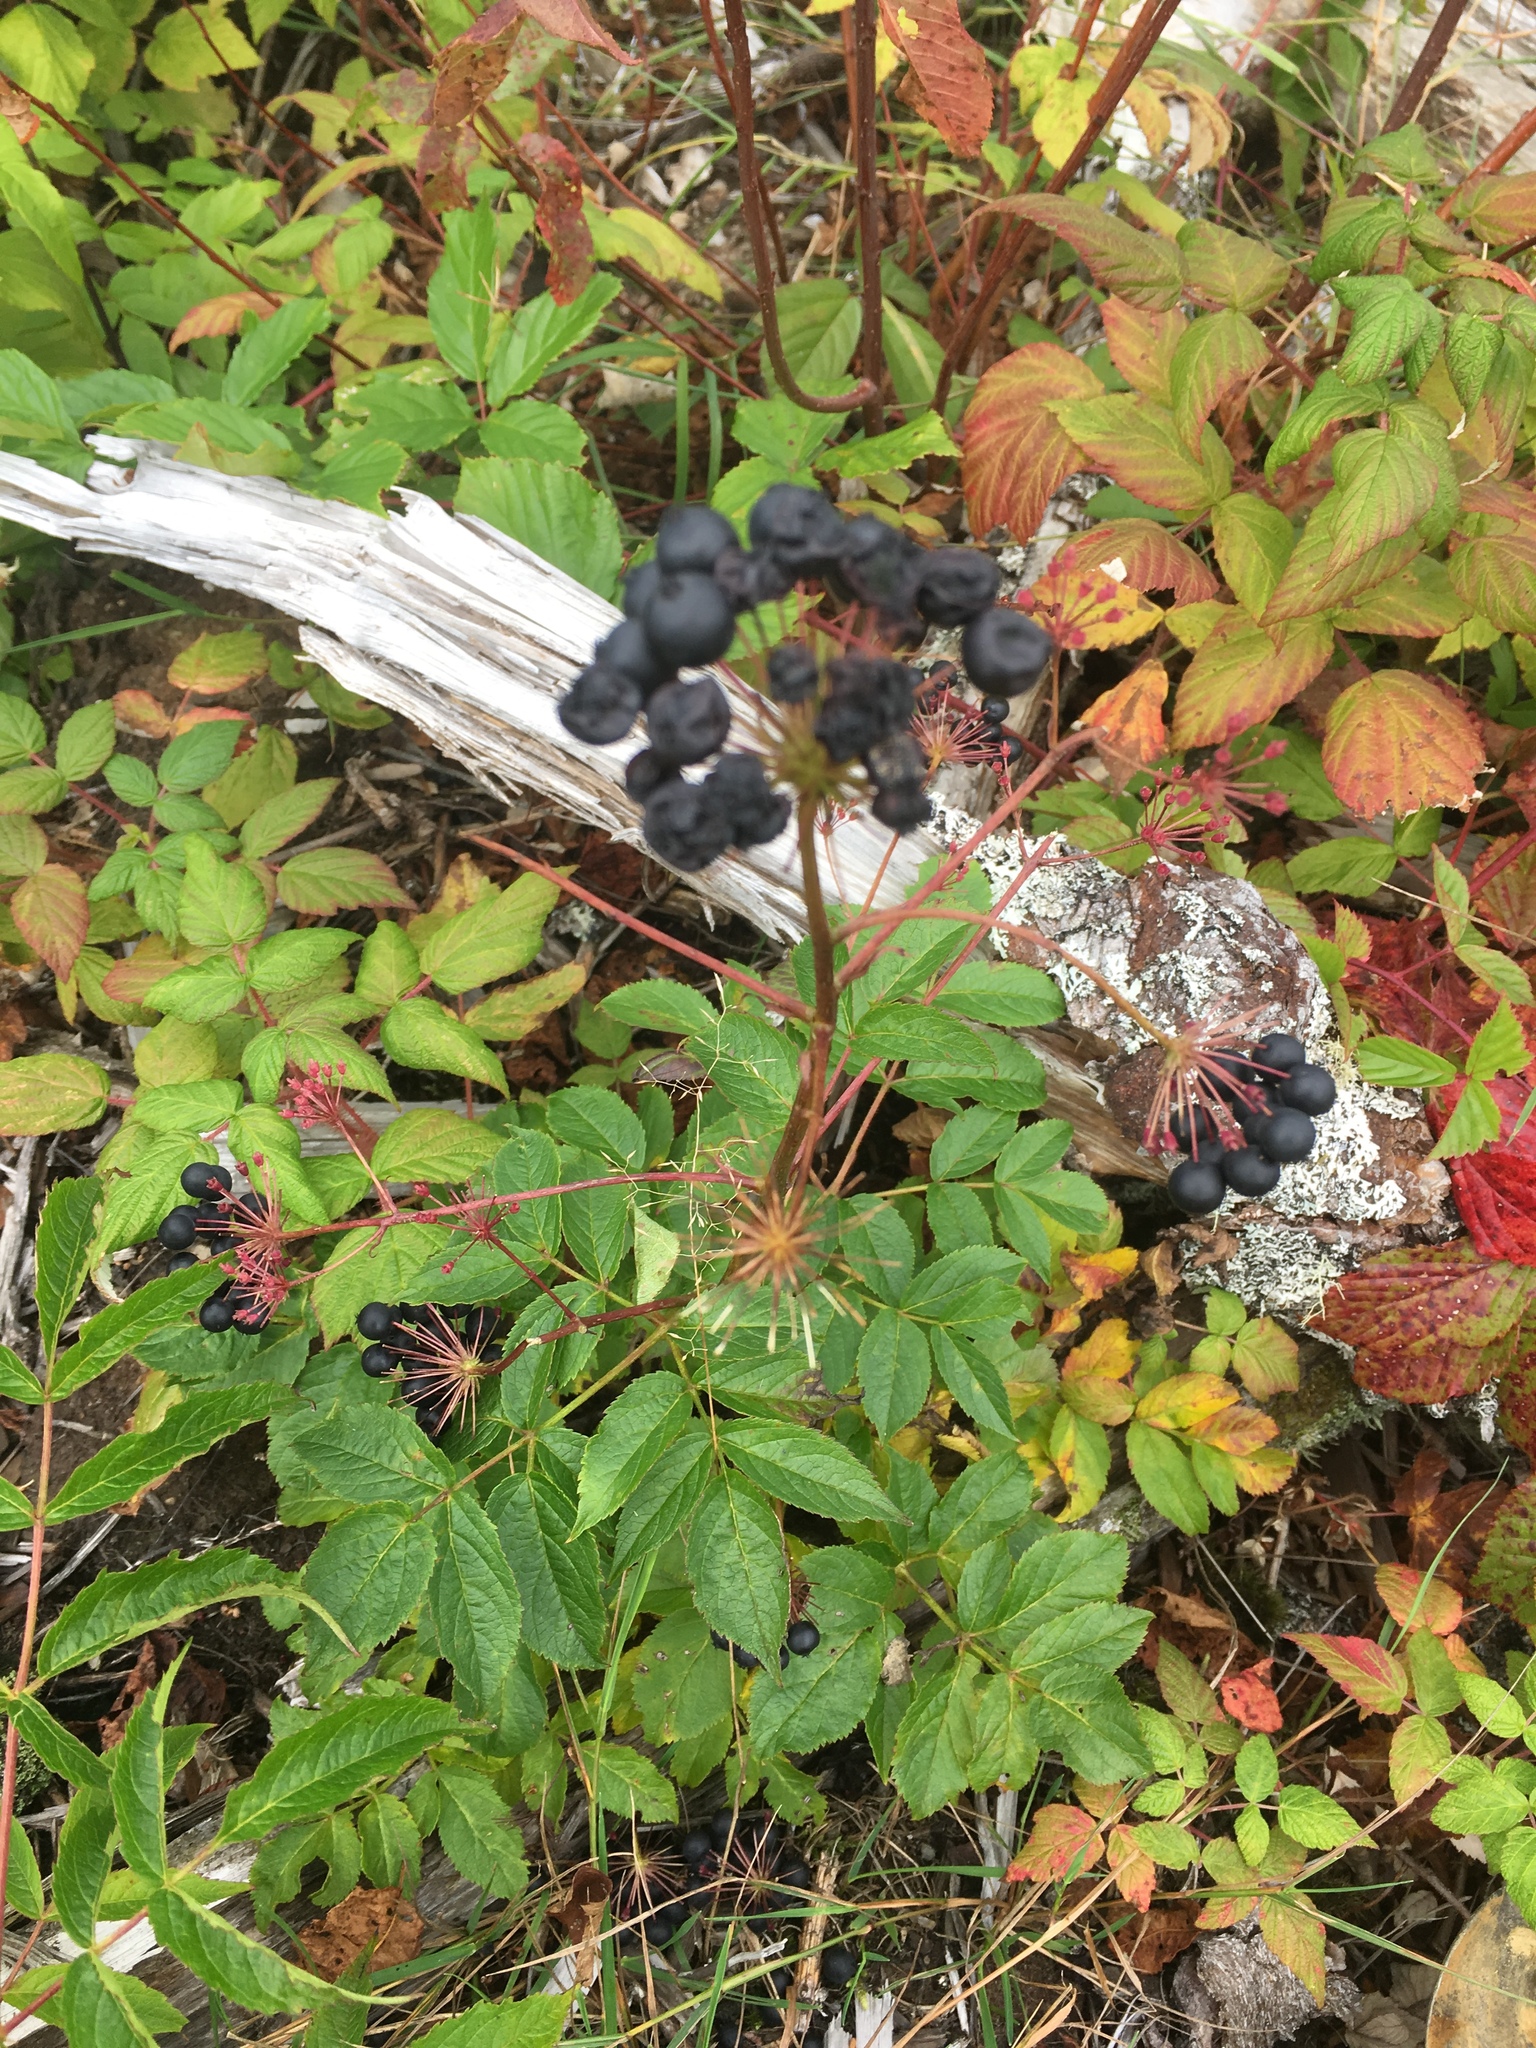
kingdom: Plantae
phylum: Tracheophyta
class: Magnoliopsida
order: Apiales
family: Araliaceae
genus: Aralia
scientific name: Aralia hispida
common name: Bristly sarsaparilla
